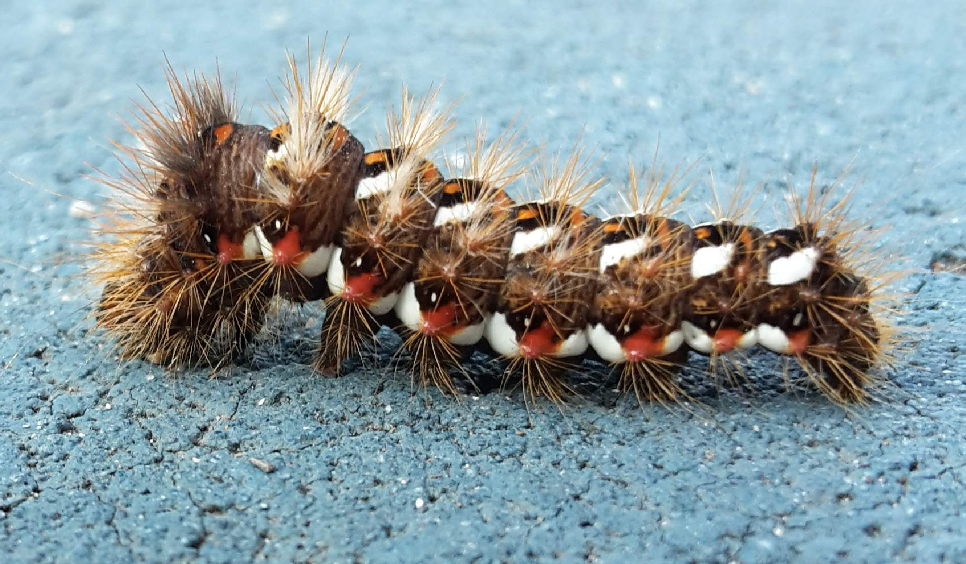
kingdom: Animalia
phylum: Arthropoda
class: Insecta
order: Lepidoptera
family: Noctuidae
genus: Acronicta
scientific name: Acronicta rumicis
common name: Knot grass
